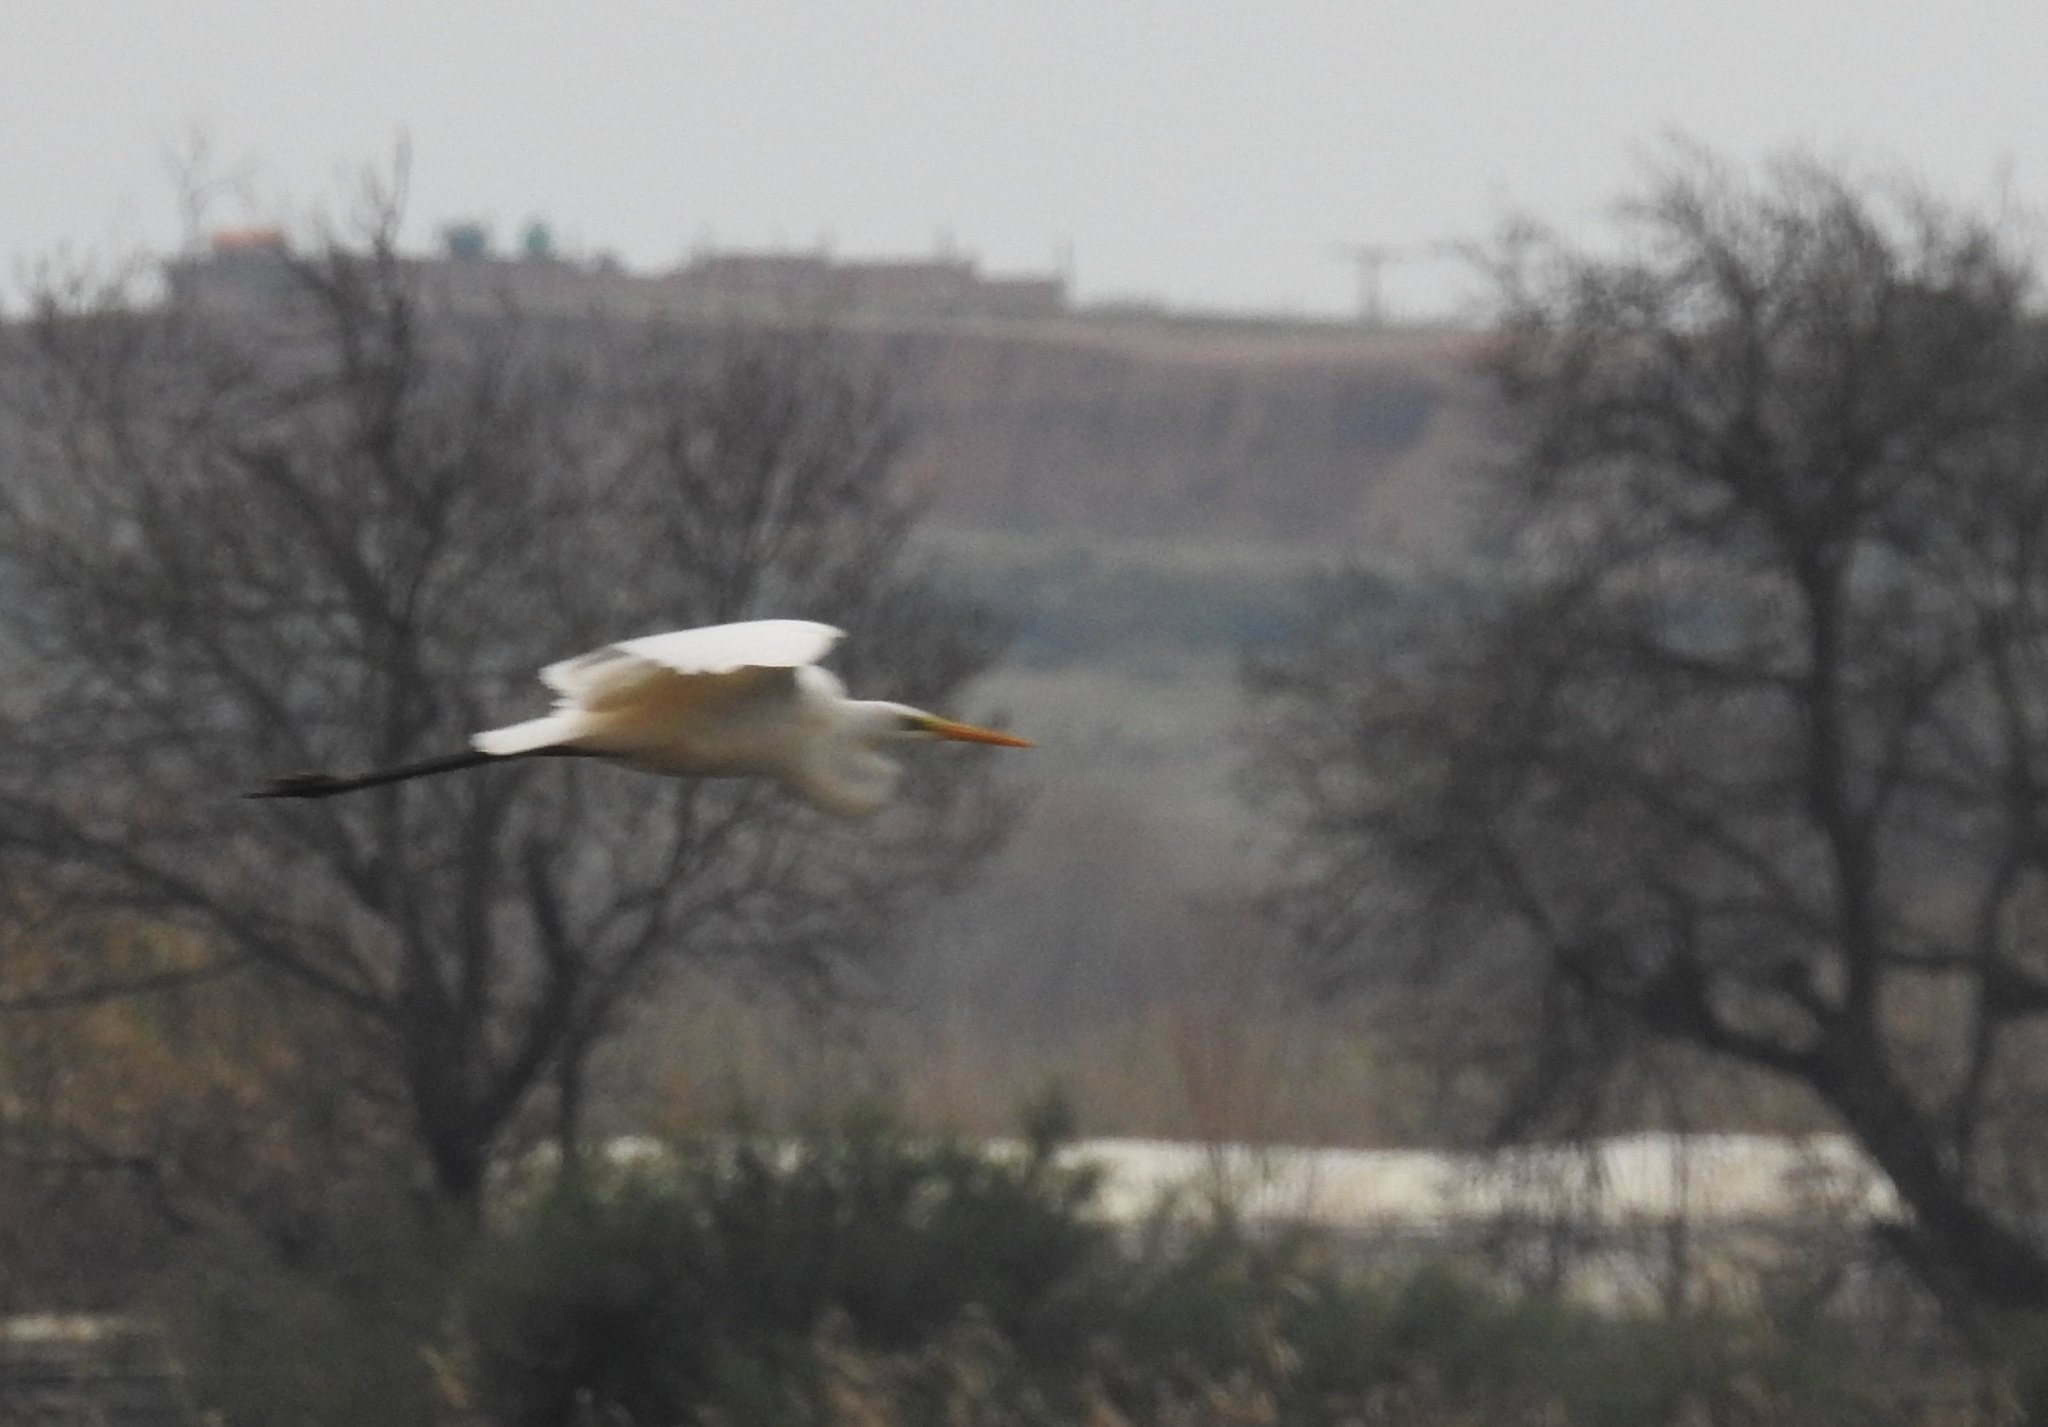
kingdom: Animalia
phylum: Chordata
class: Aves
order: Pelecaniformes
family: Ardeidae
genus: Ardea
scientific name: Ardea alba
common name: Great egret
